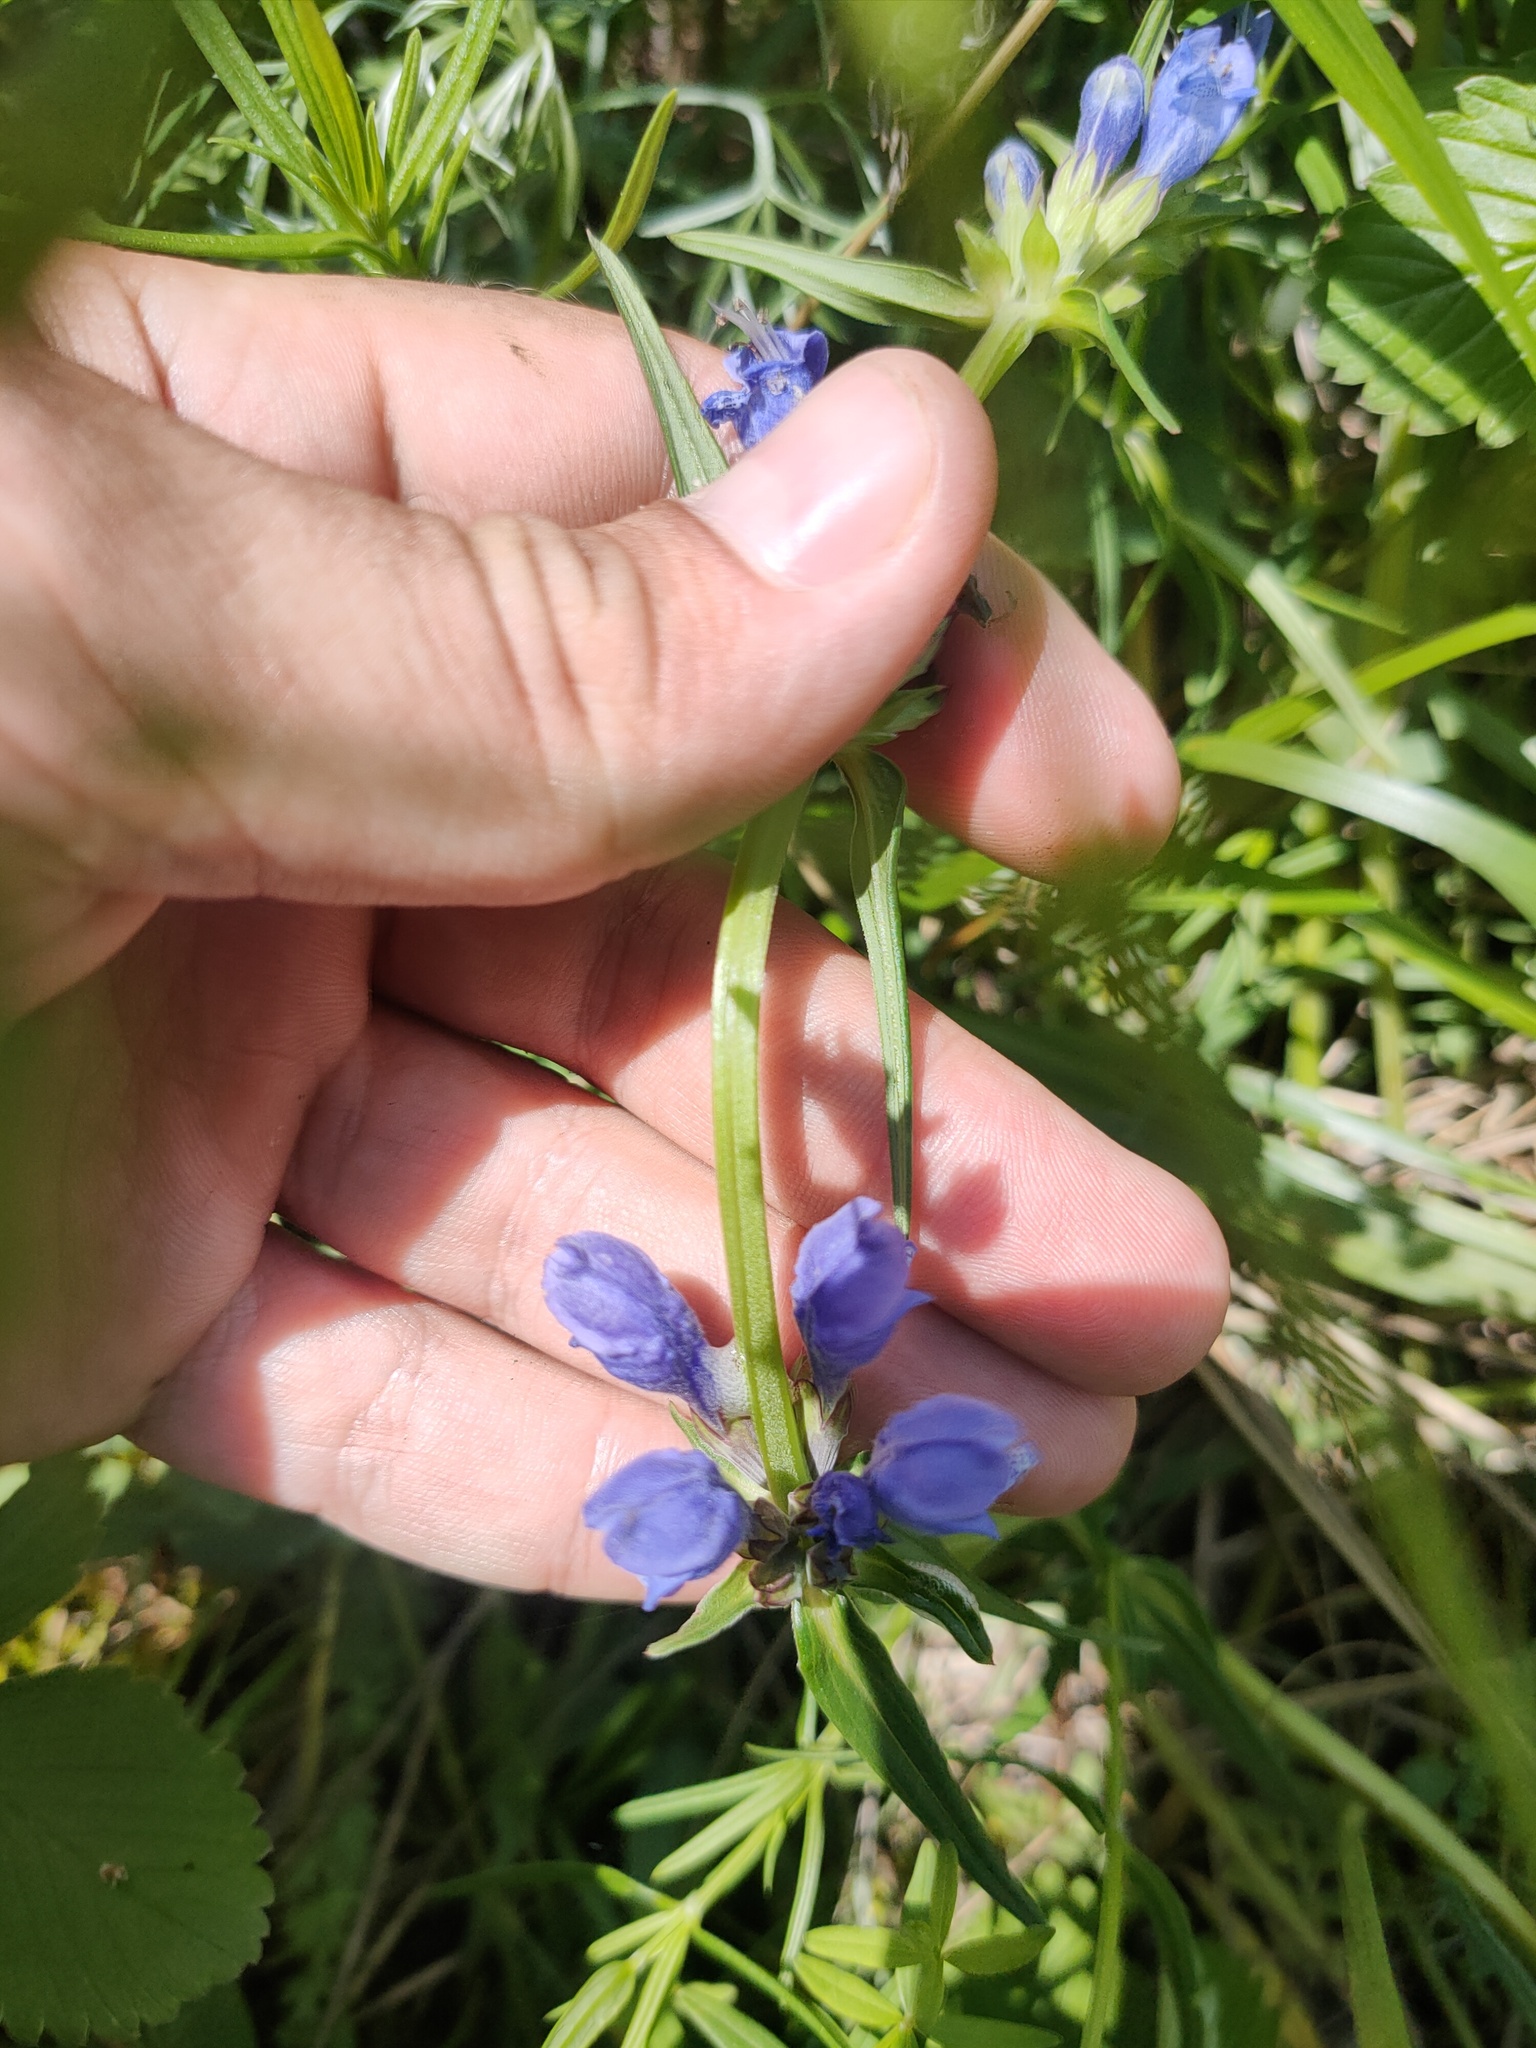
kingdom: Plantae
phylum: Tracheophyta
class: Magnoliopsida
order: Lamiales
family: Lamiaceae
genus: Dracocephalum
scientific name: Dracocephalum ruyschiana
